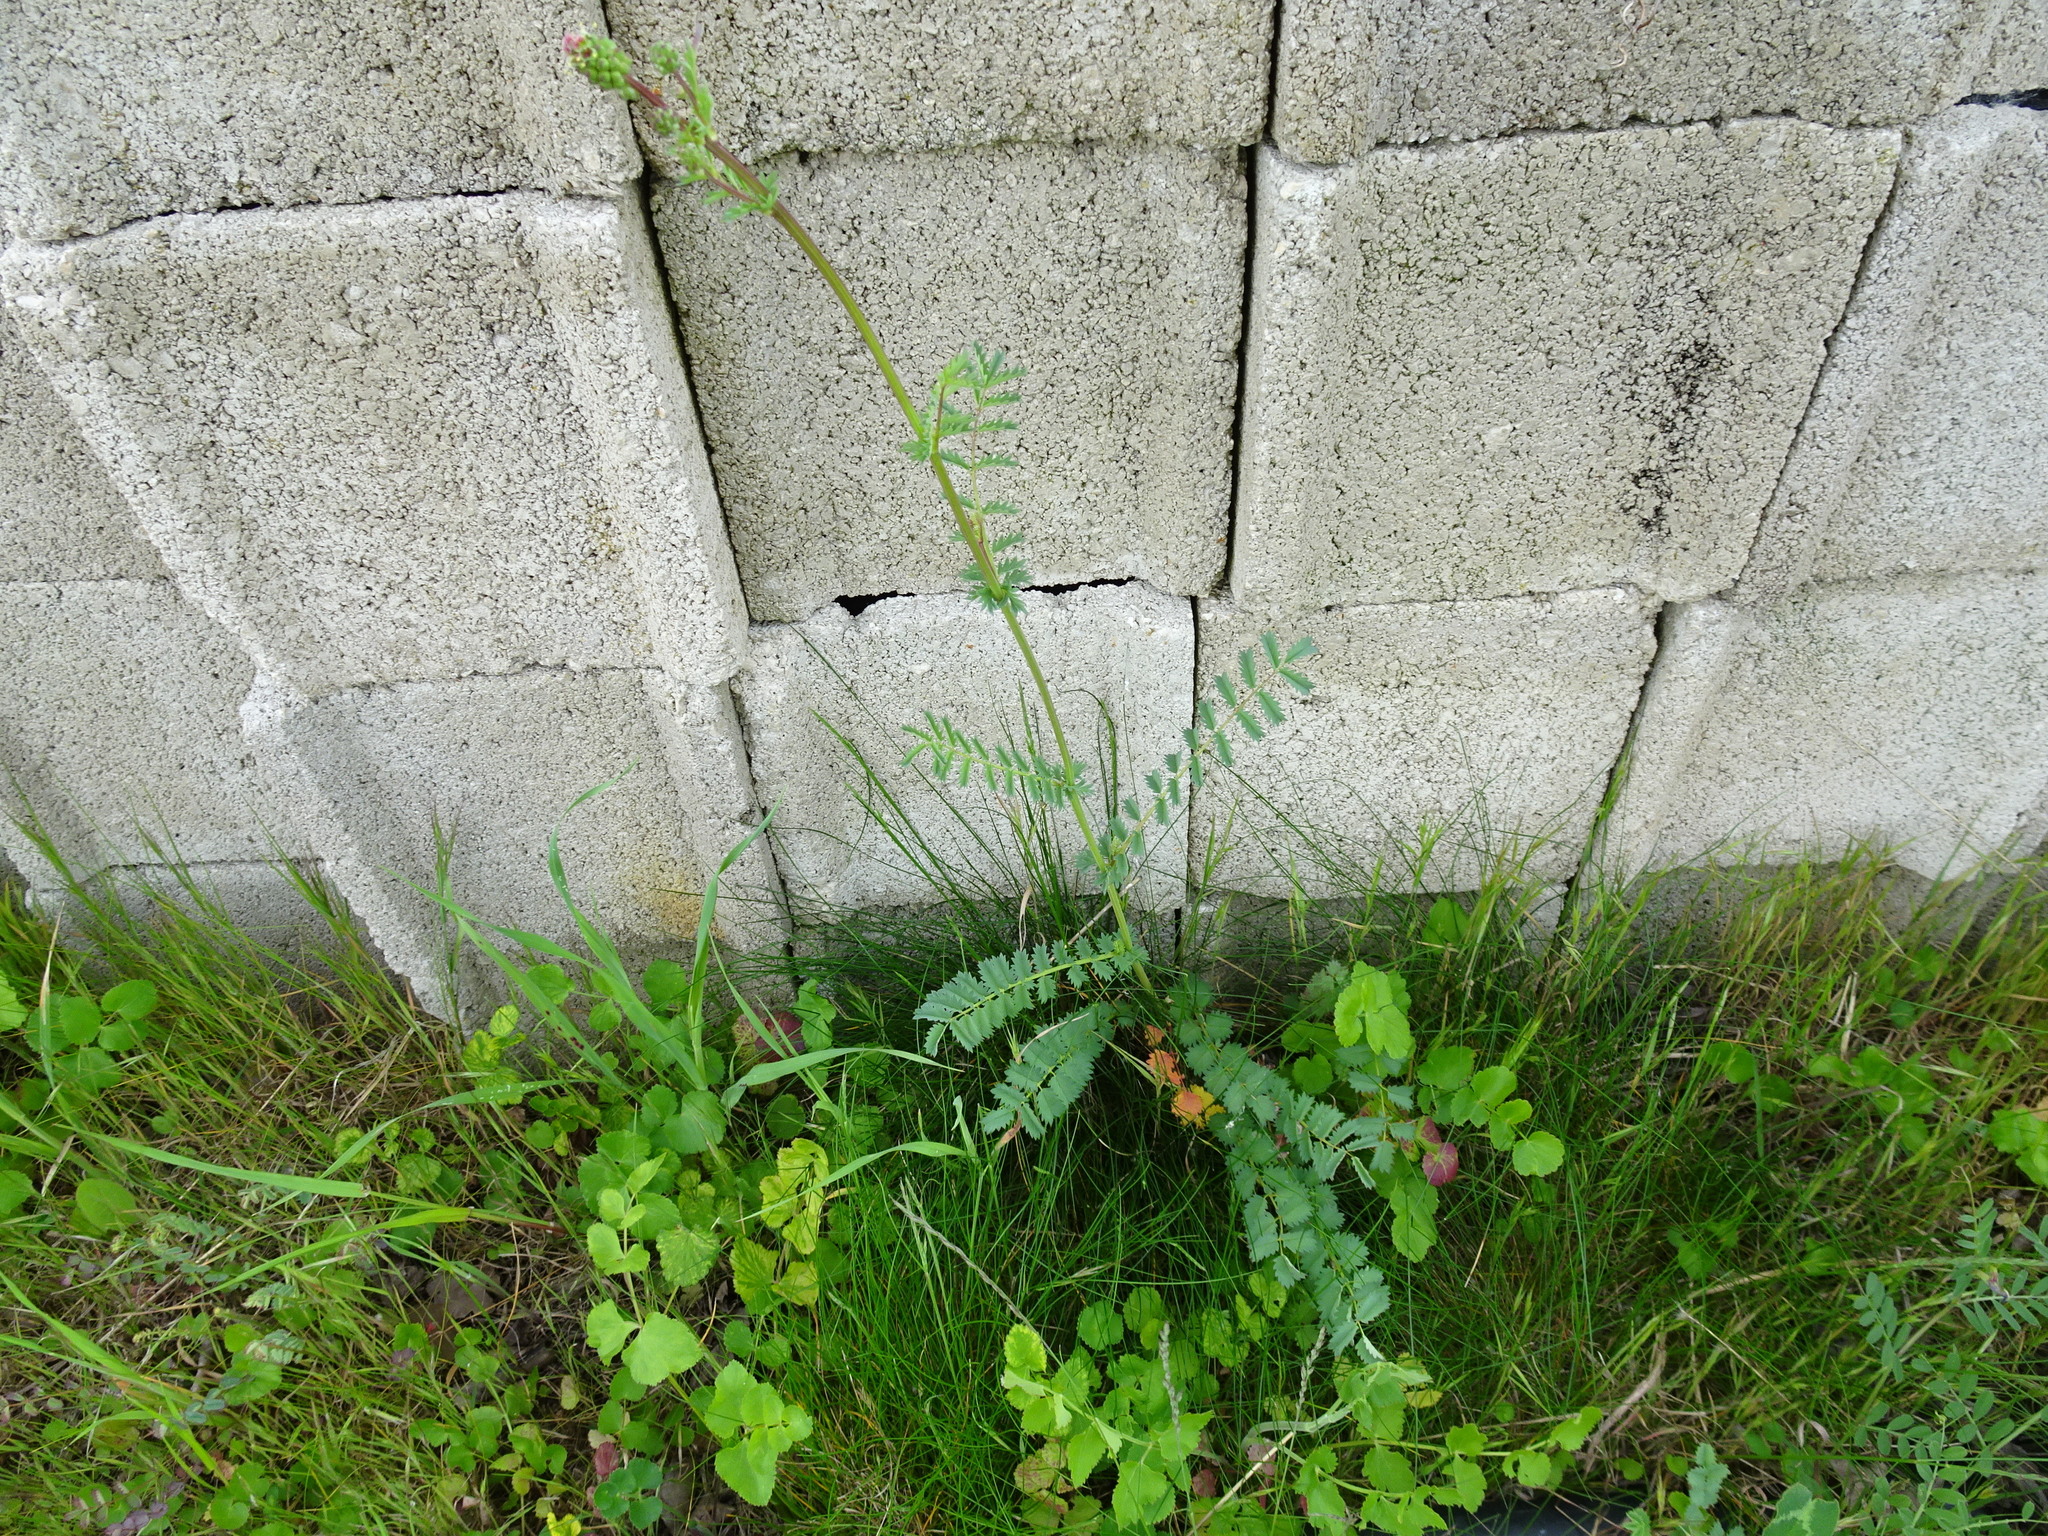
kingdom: Plantae
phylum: Tracheophyta
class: Magnoliopsida
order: Rosales
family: Rosaceae
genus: Poterium
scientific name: Poterium sanguisorba
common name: Salad burnet
